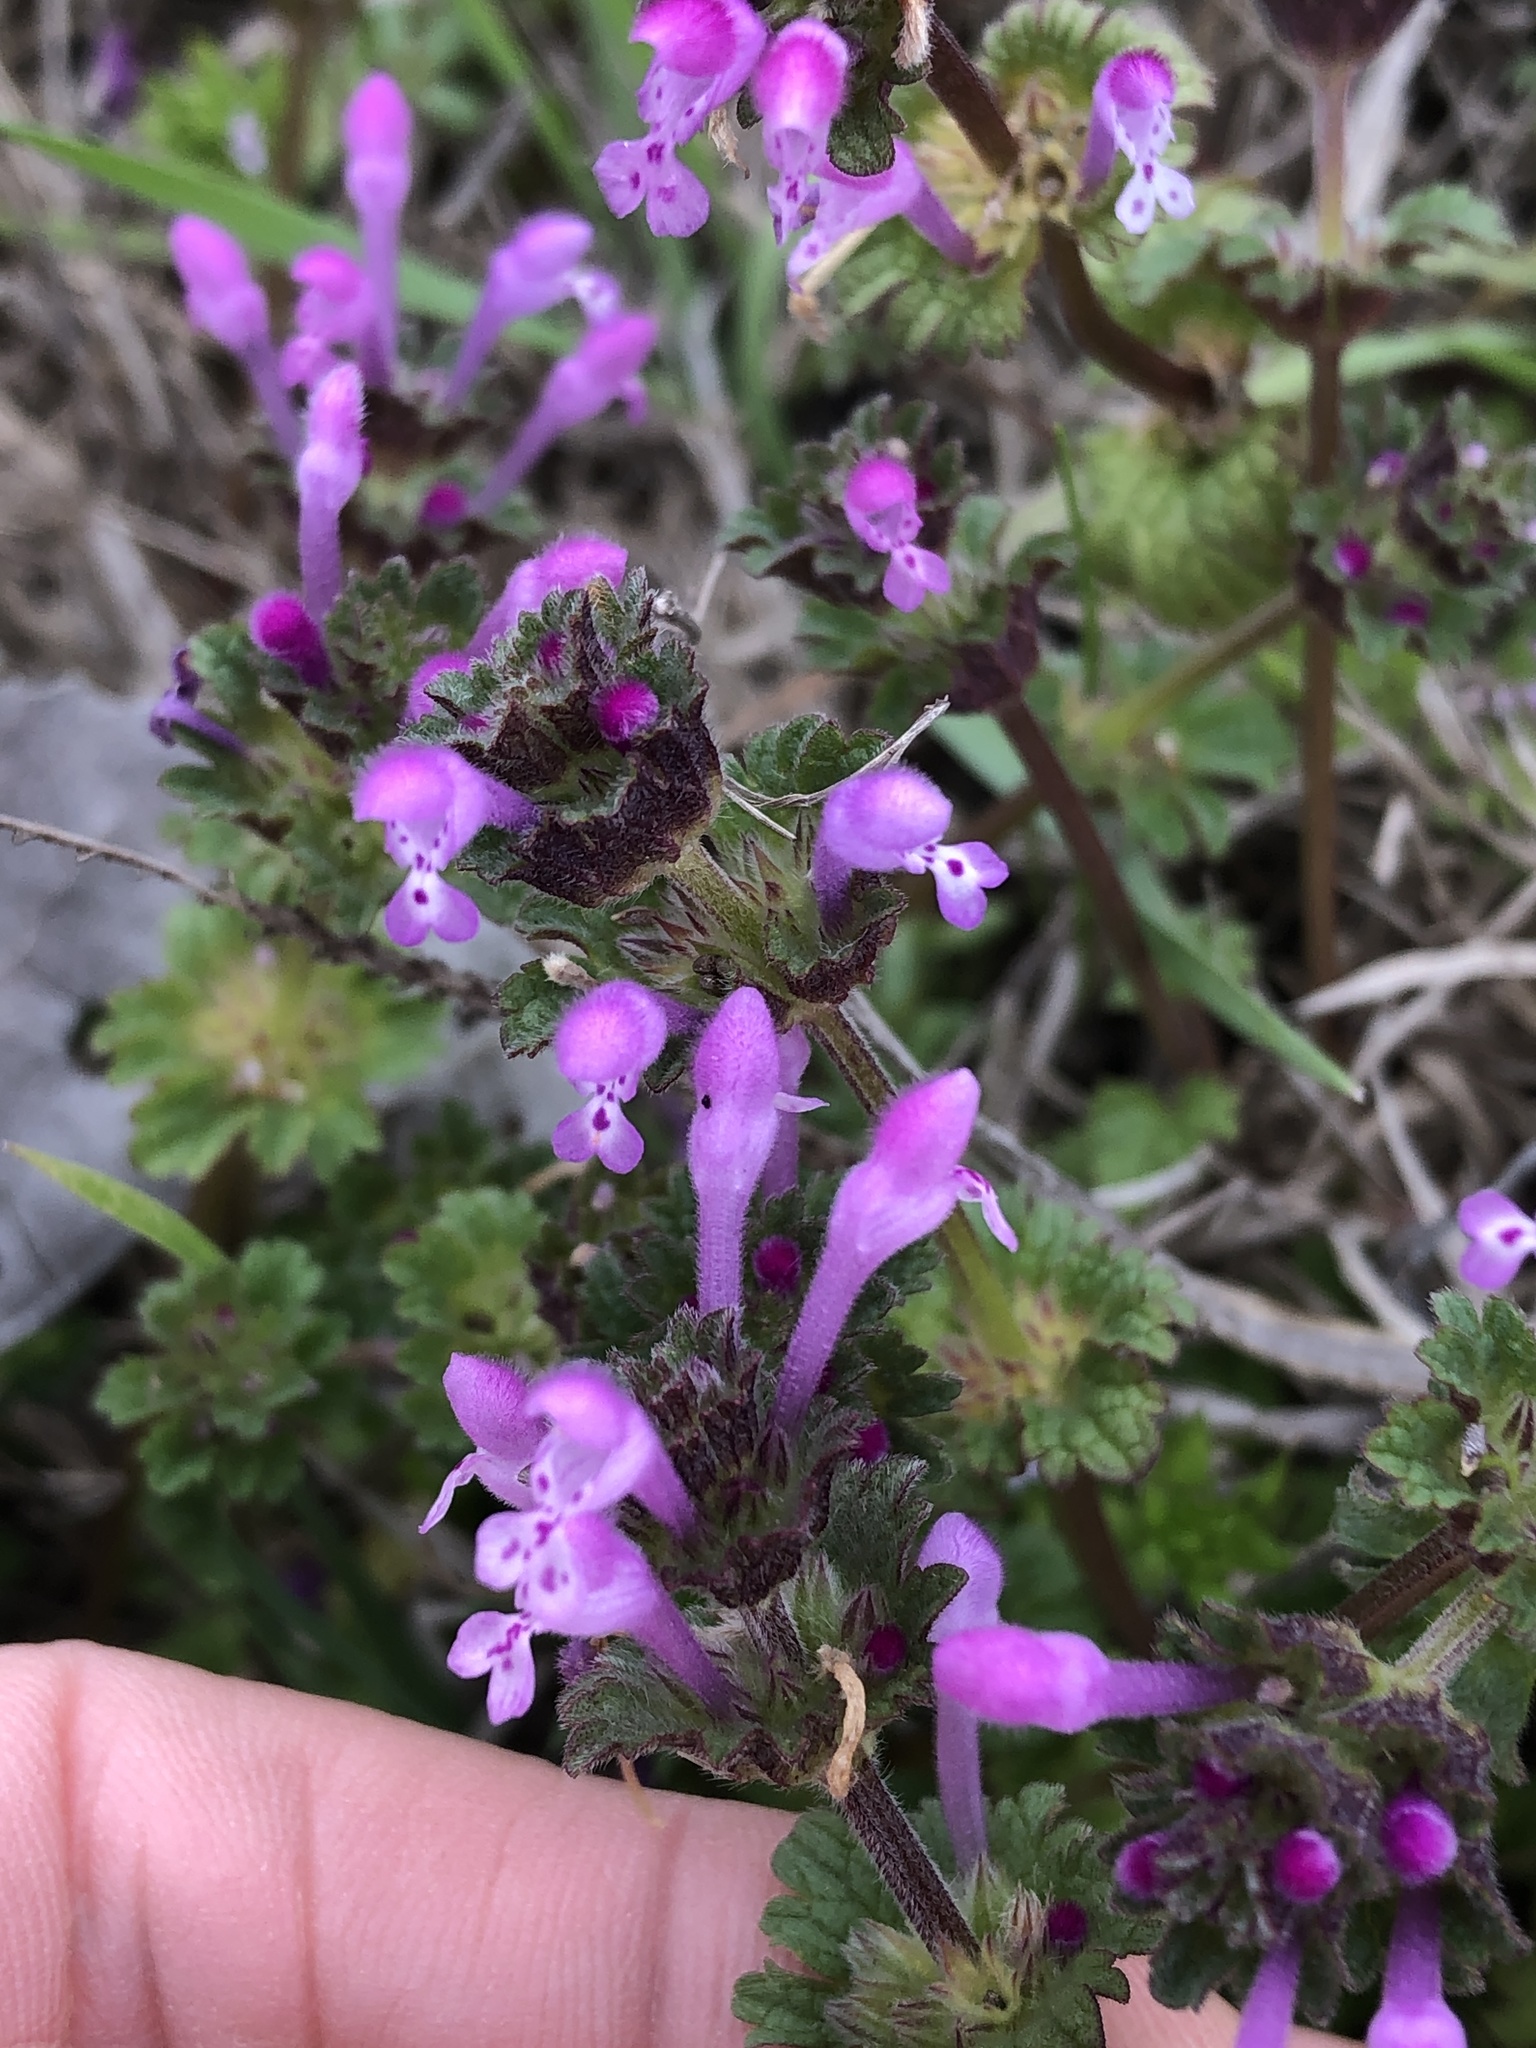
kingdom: Plantae
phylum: Tracheophyta
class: Magnoliopsida
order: Lamiales
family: Lamiaceae
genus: Lamium
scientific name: Lamium amplexicaule
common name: Henbit dead-nettle
